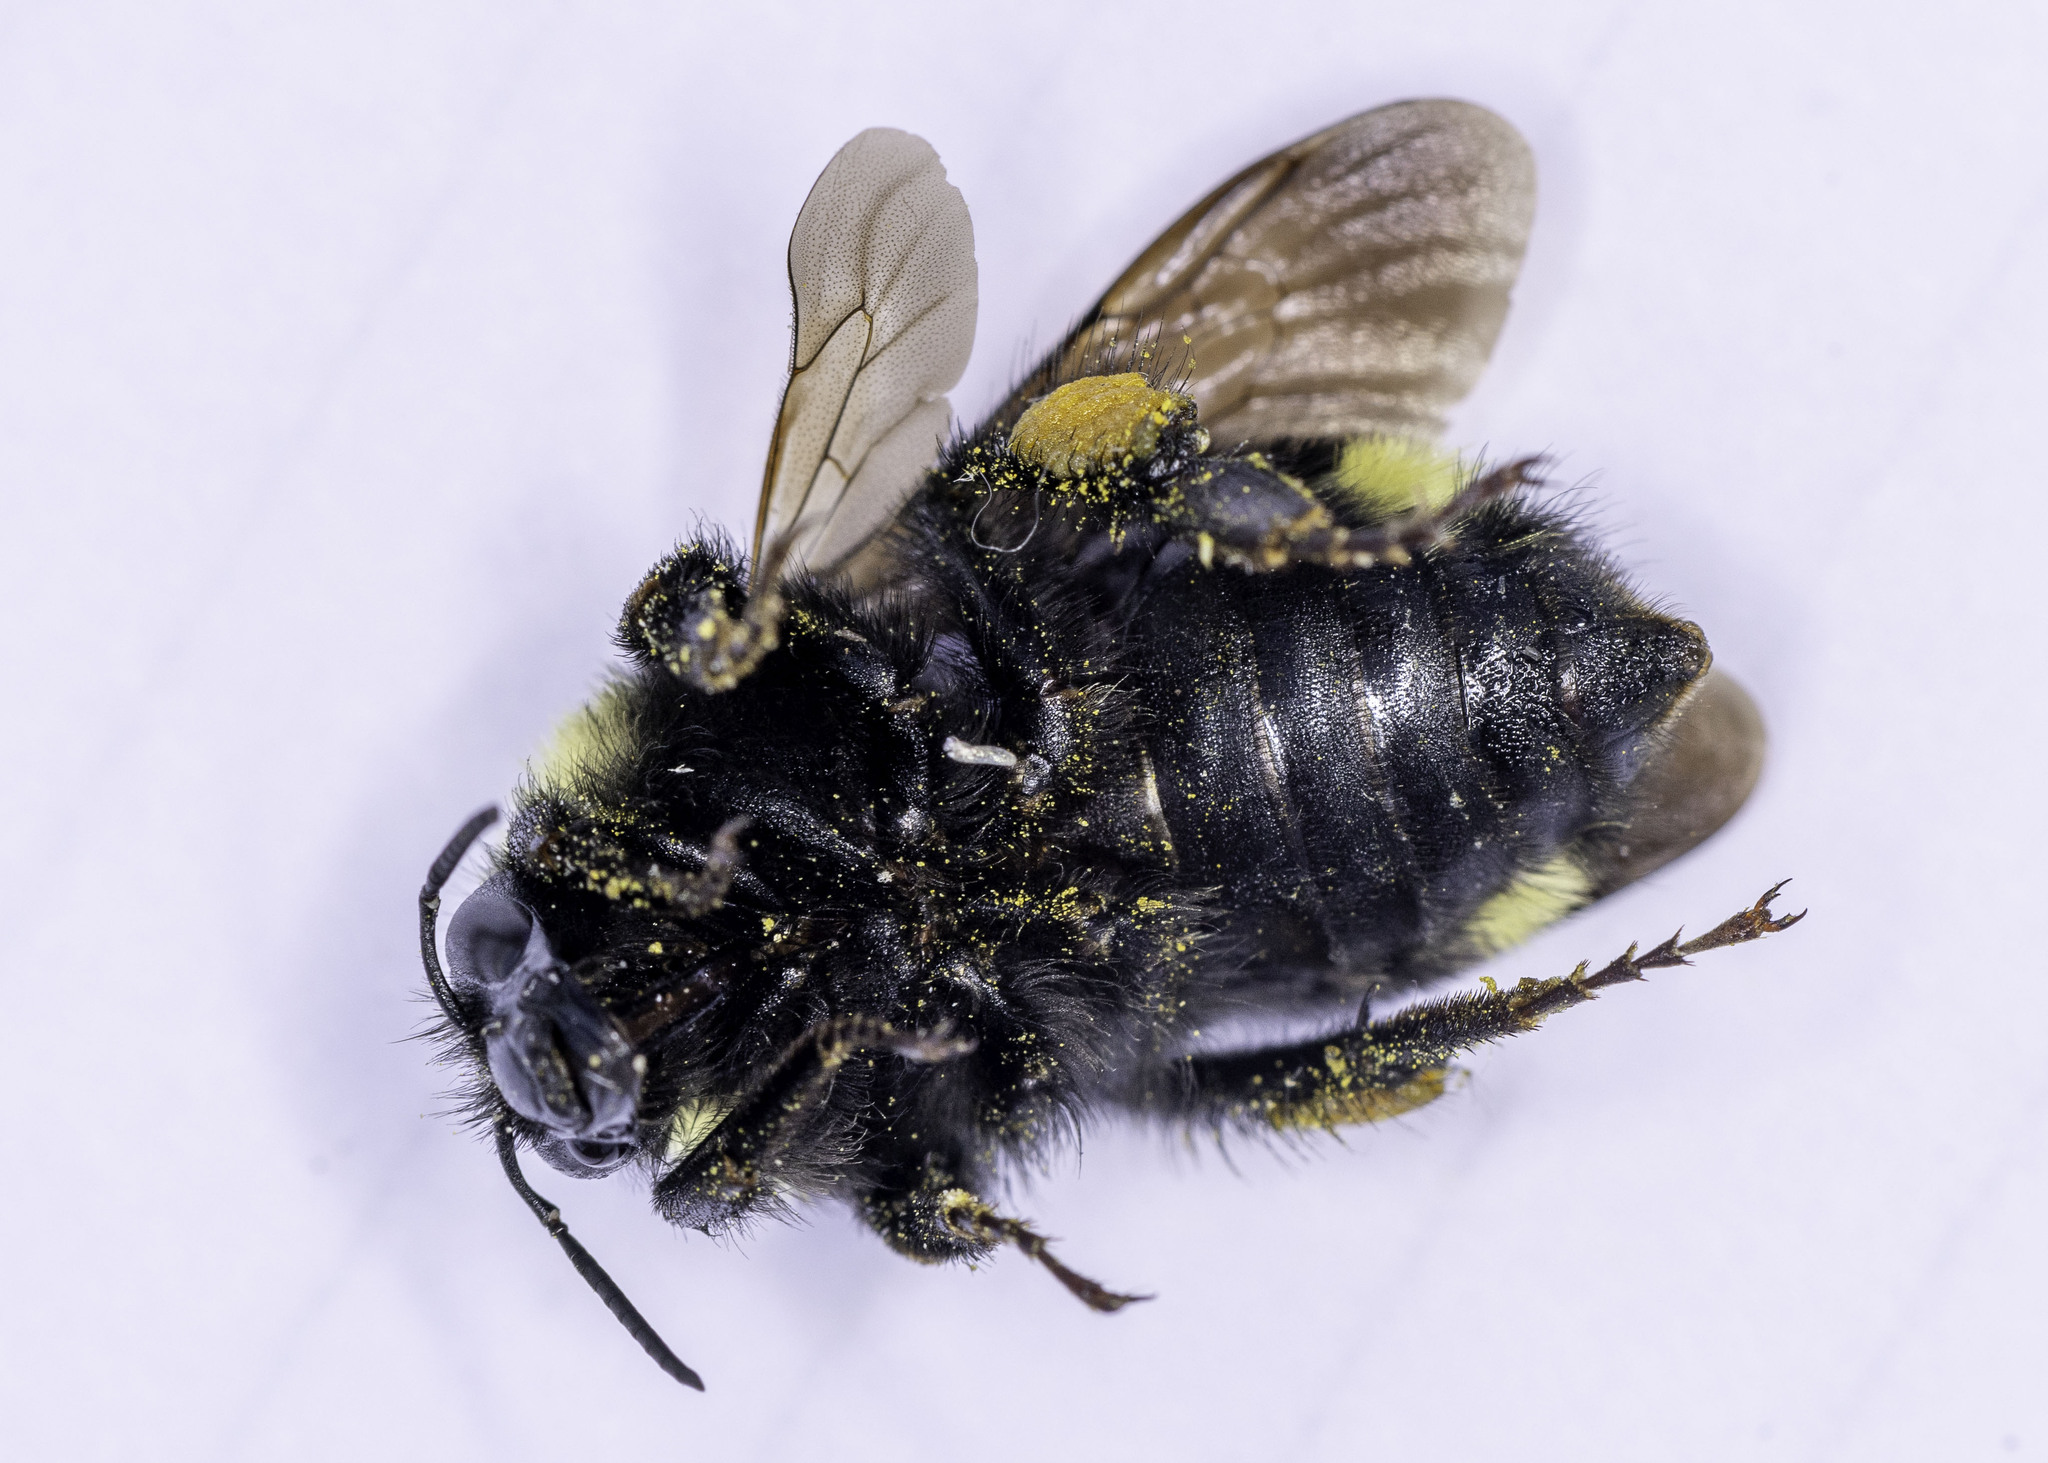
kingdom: Animalia
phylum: Arthropoda
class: Insecta
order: Hymenoptera
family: Apidae
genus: Bombus
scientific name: Bombus californicus
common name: California bumble bee
